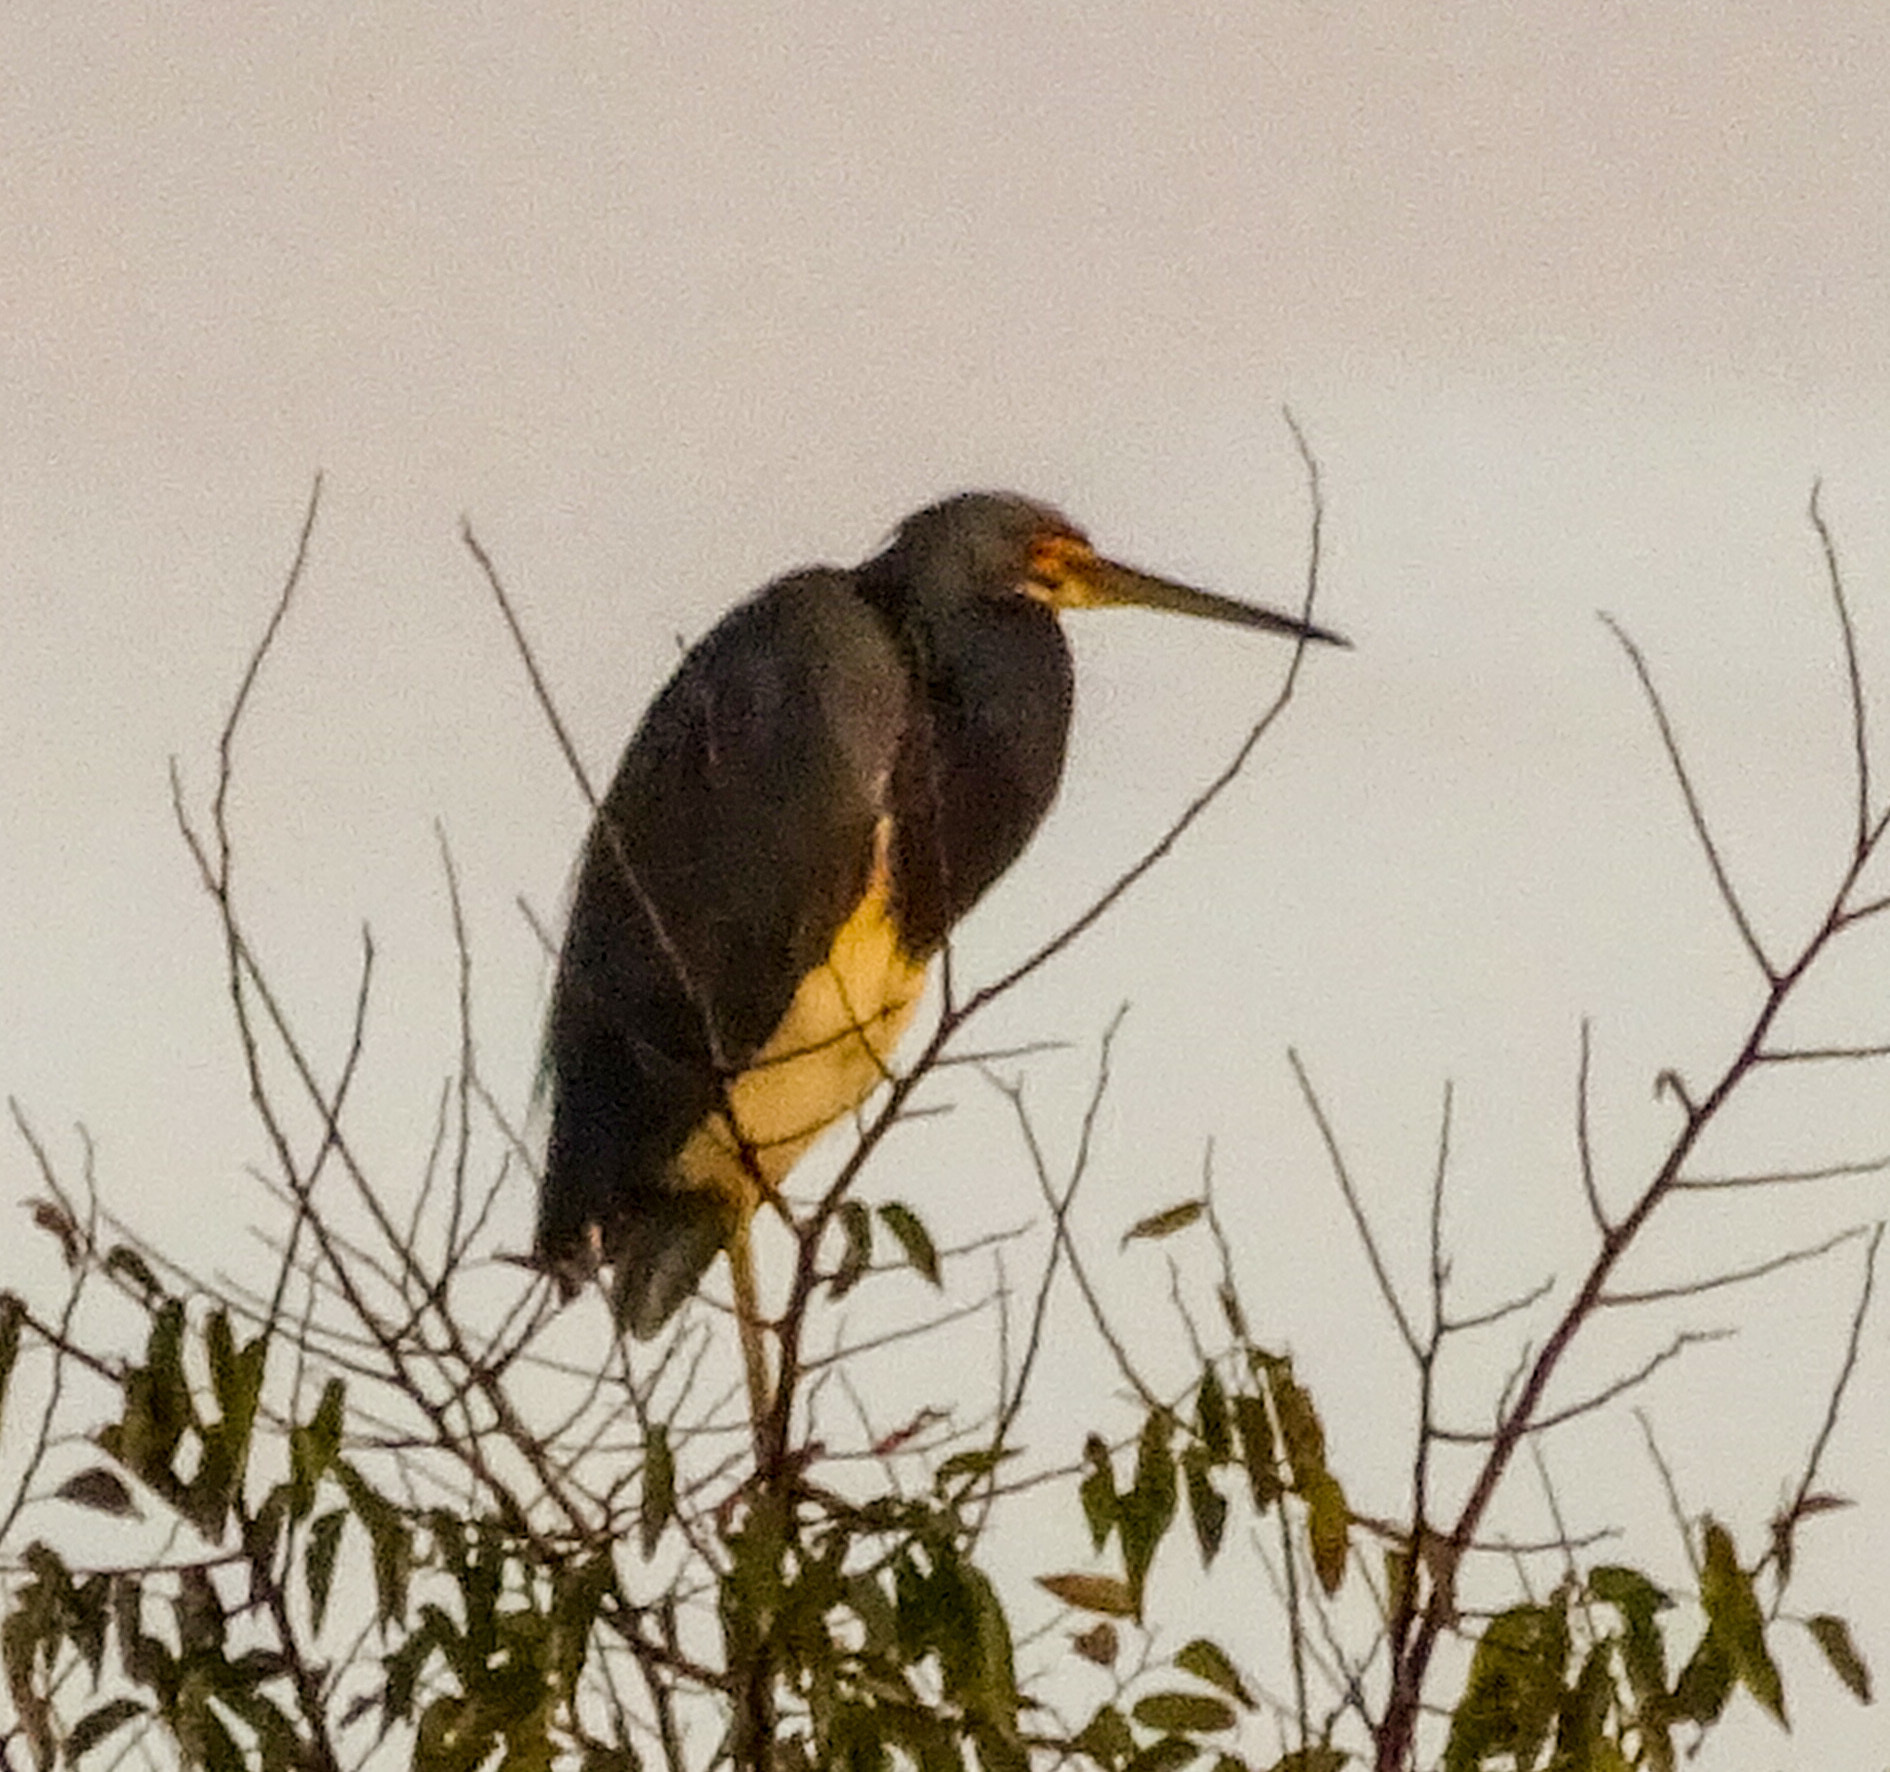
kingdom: Animalia
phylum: Chordata
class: Aves
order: Pelecaniformes
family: Ardeidae
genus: Egretta
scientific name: Egretta tricolor
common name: Tricolored heron
